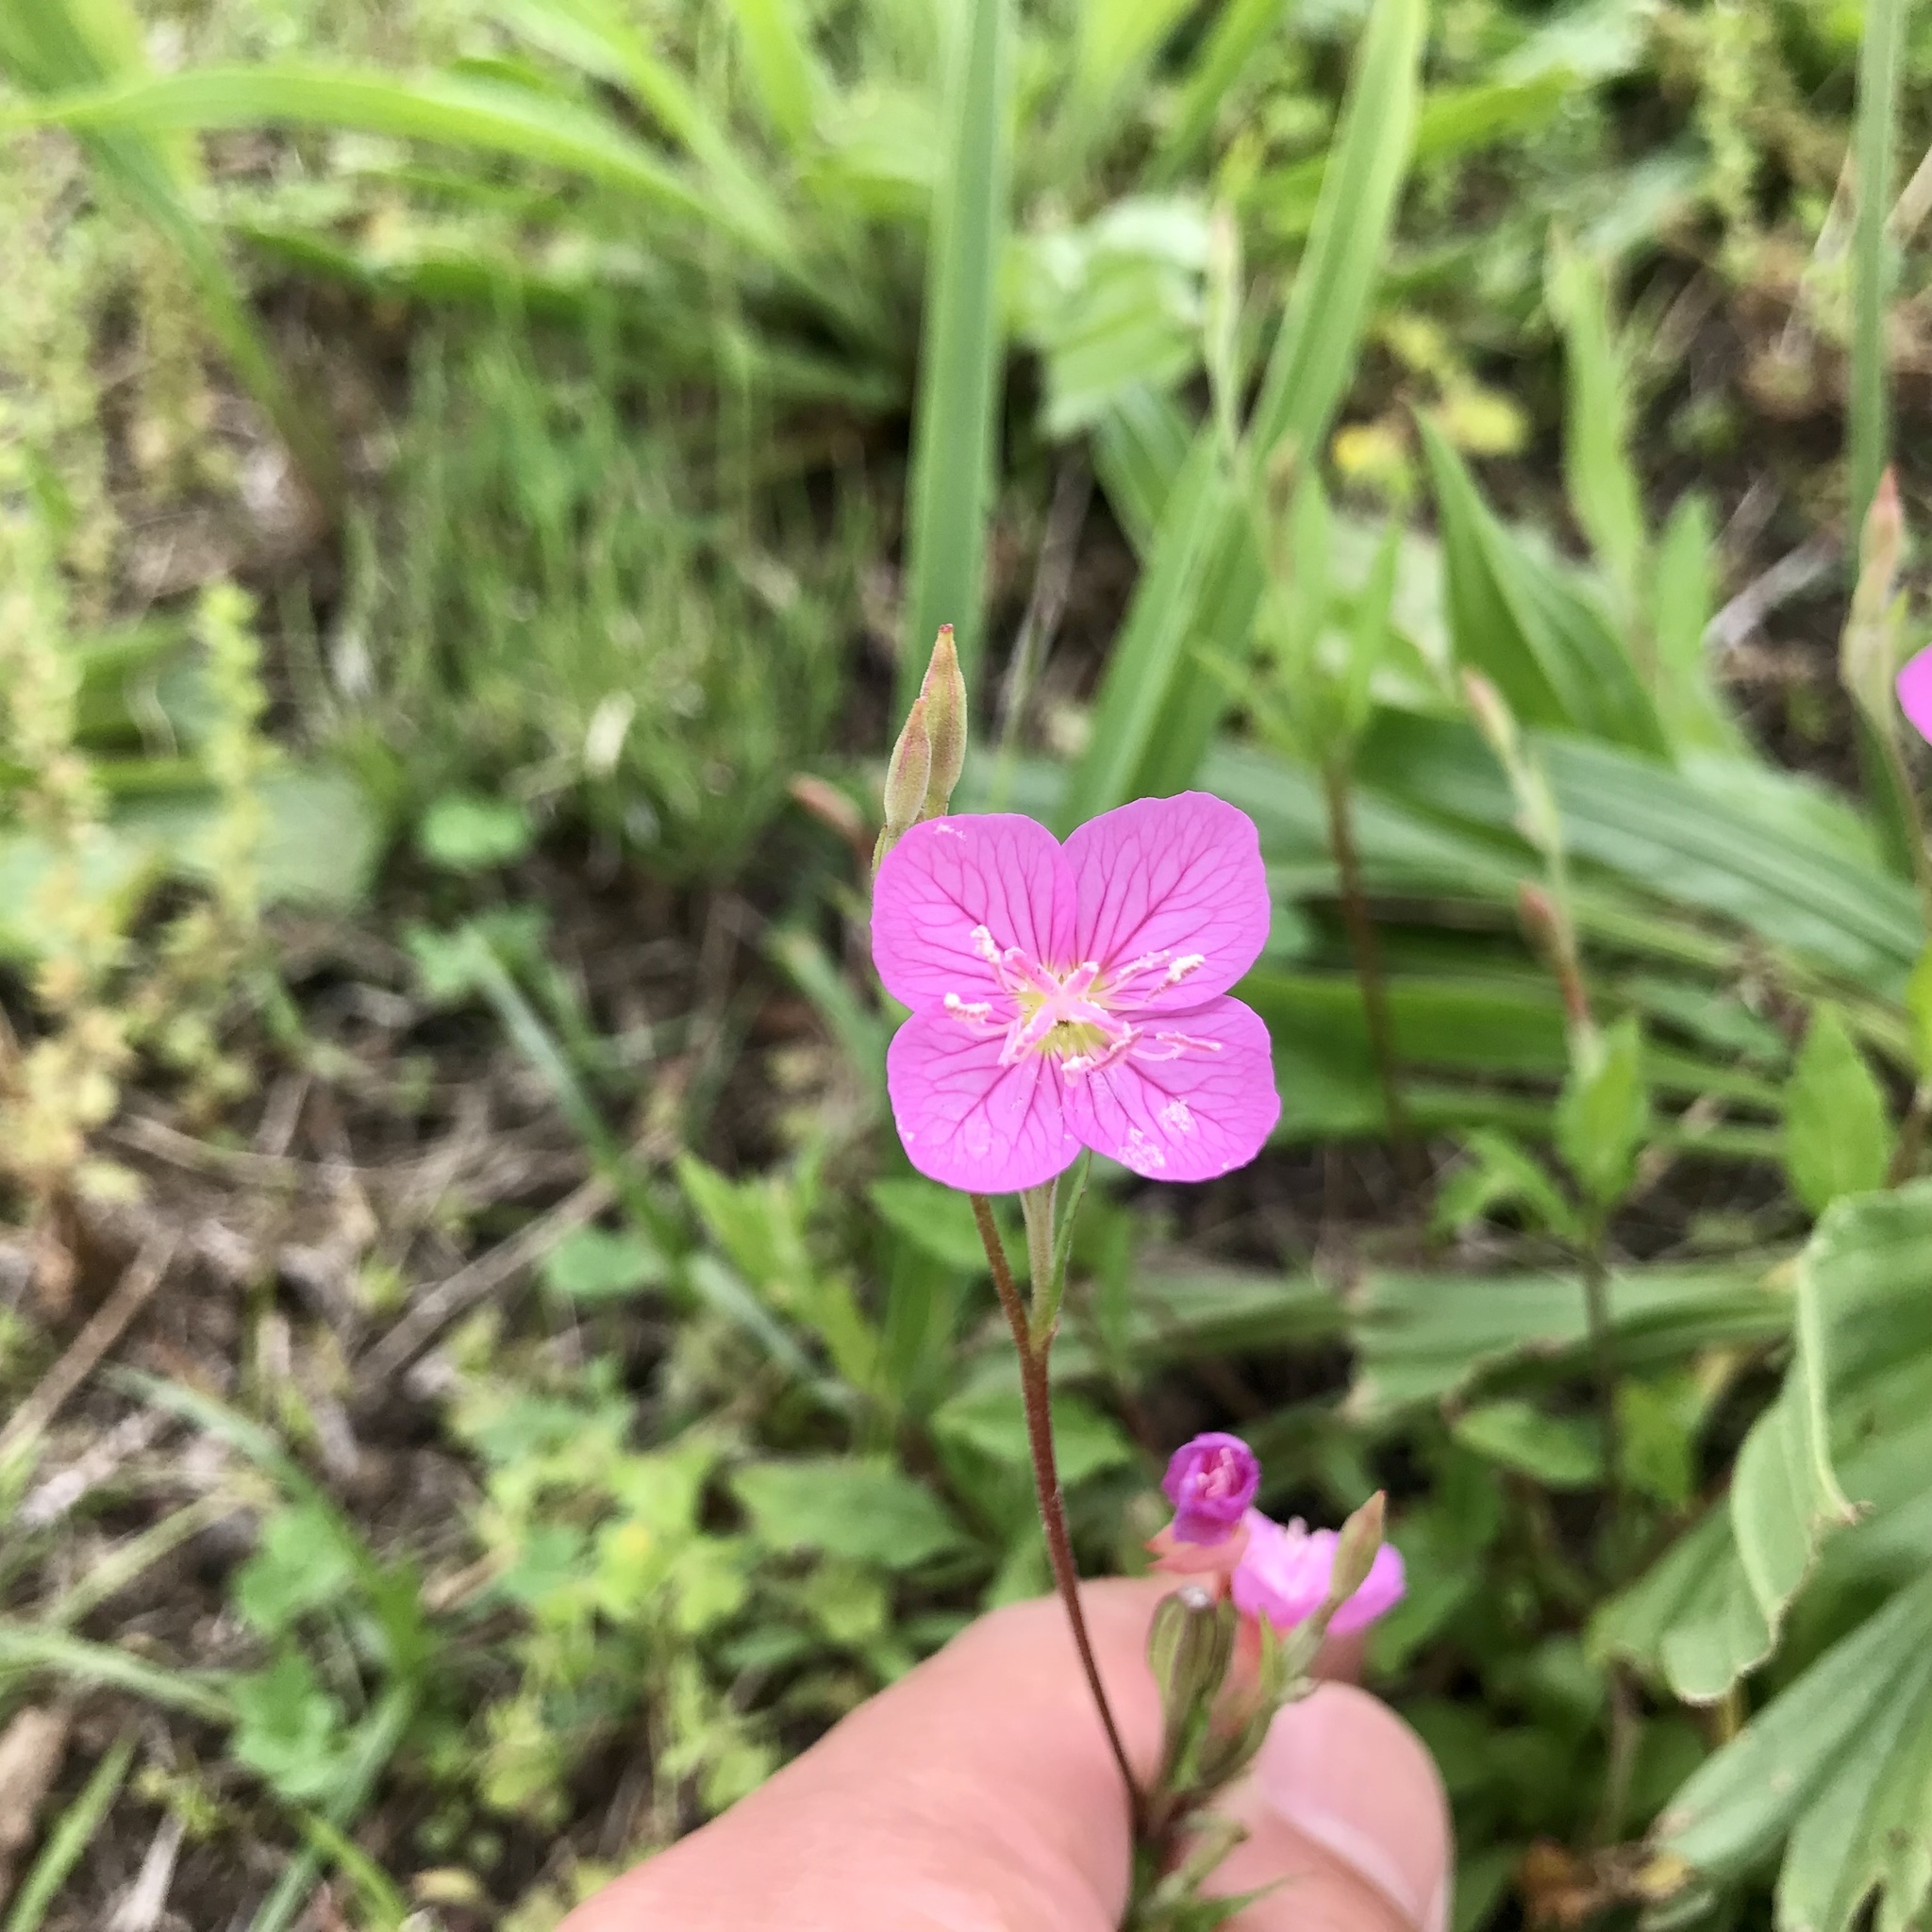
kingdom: Plantae
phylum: Tracheophyta
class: Magnoliopsida
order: Myrtales
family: Onagraceae
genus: Oenothera
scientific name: Oenothera rosea
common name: Rosy evening-primrose
